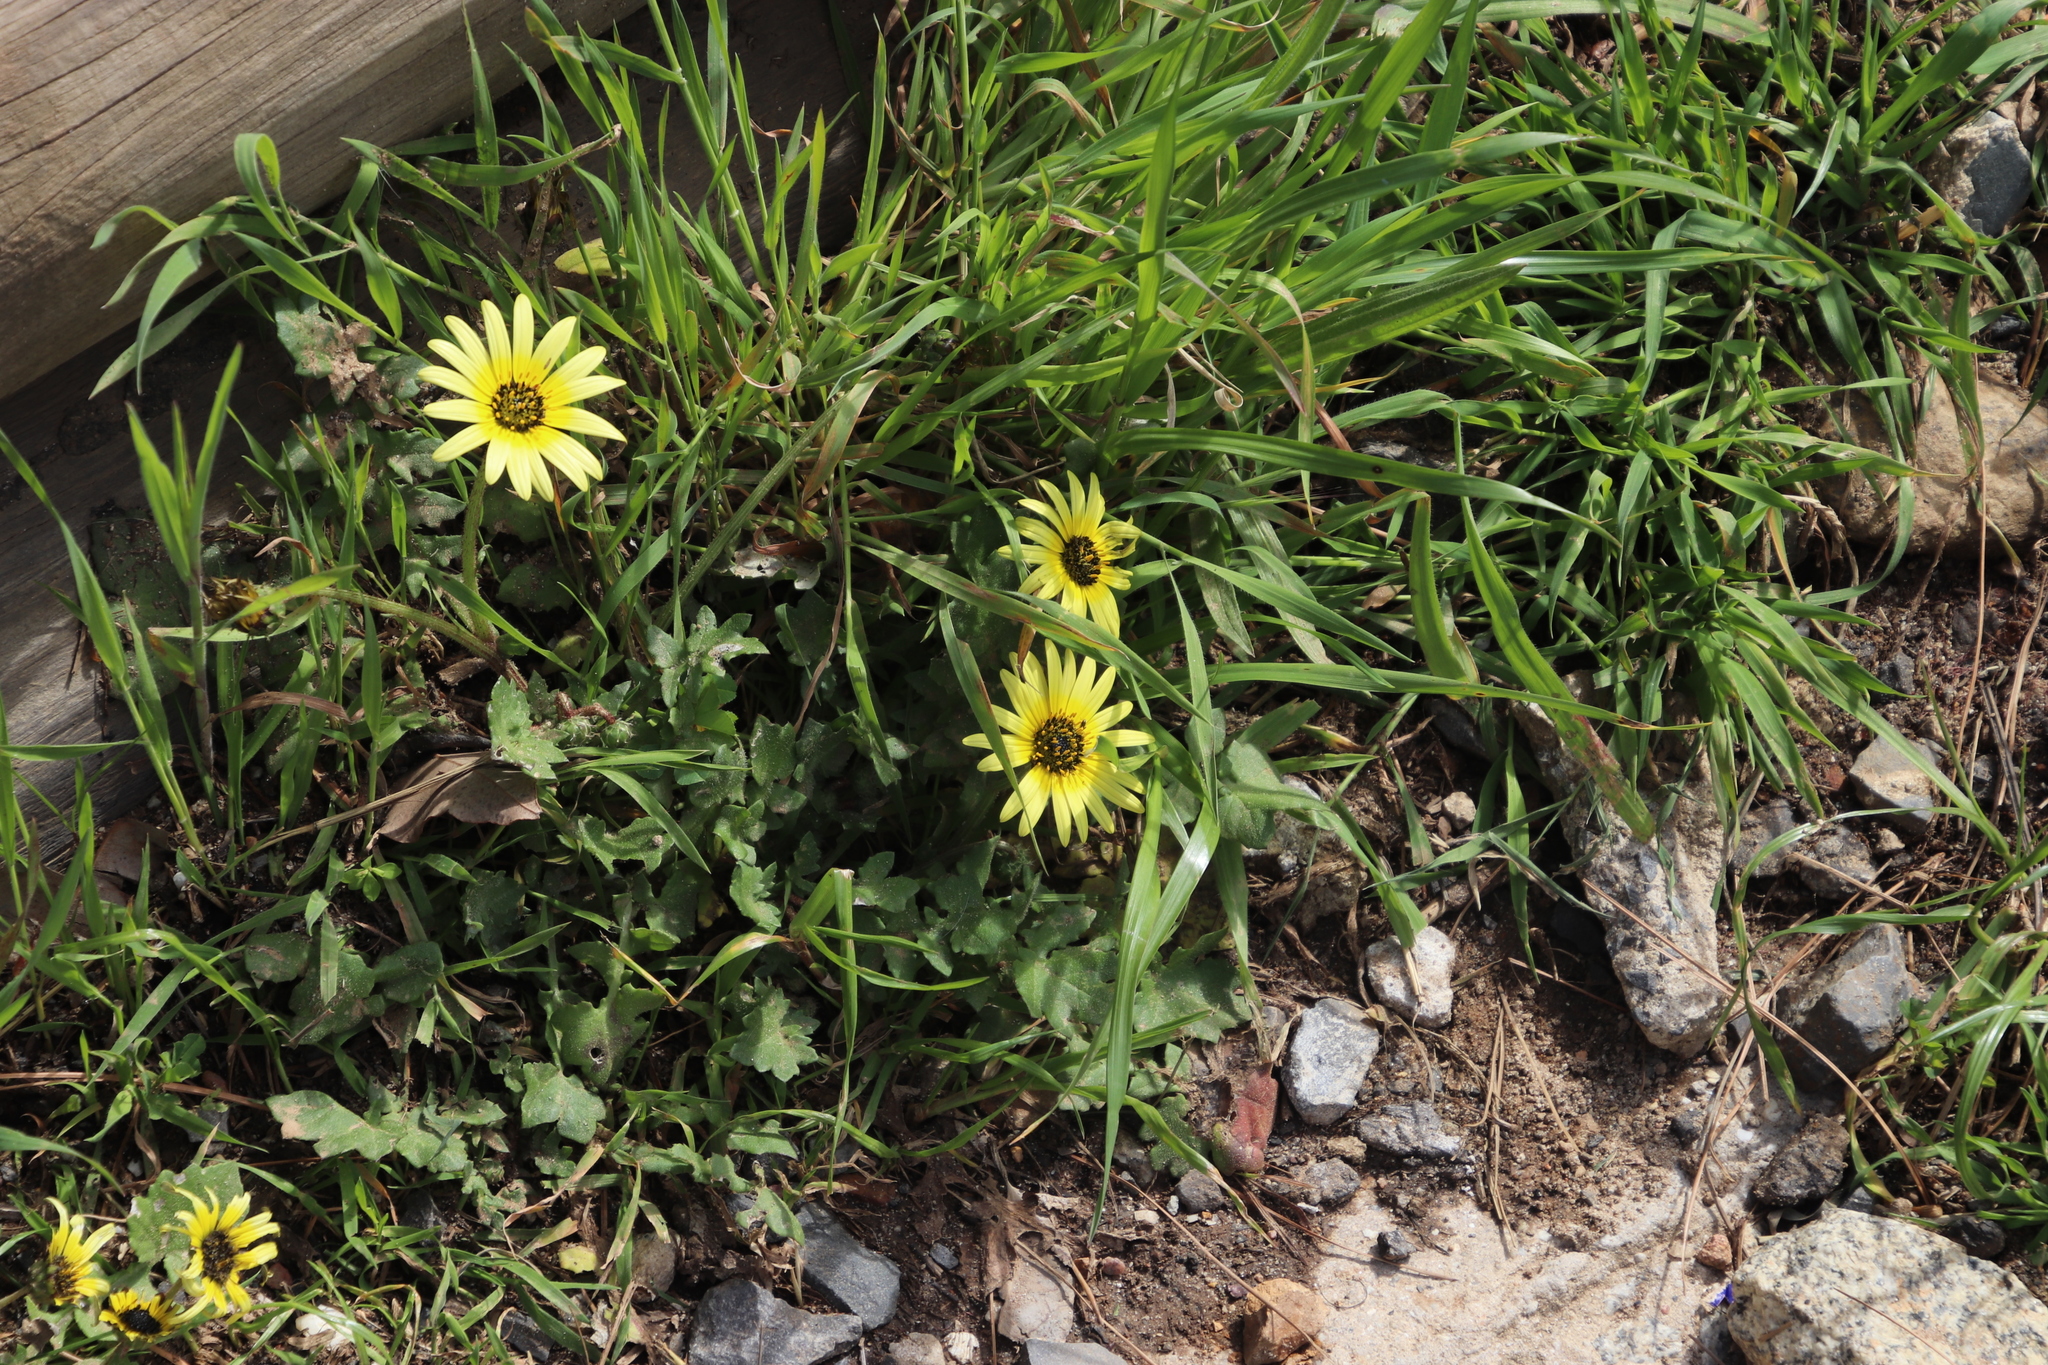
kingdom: Plantae
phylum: Tracheophyta
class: Magnoliopsida
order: Asterales
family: Asteraceae
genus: Arctotheca
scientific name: Arctotheca calendula
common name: Capeweed
